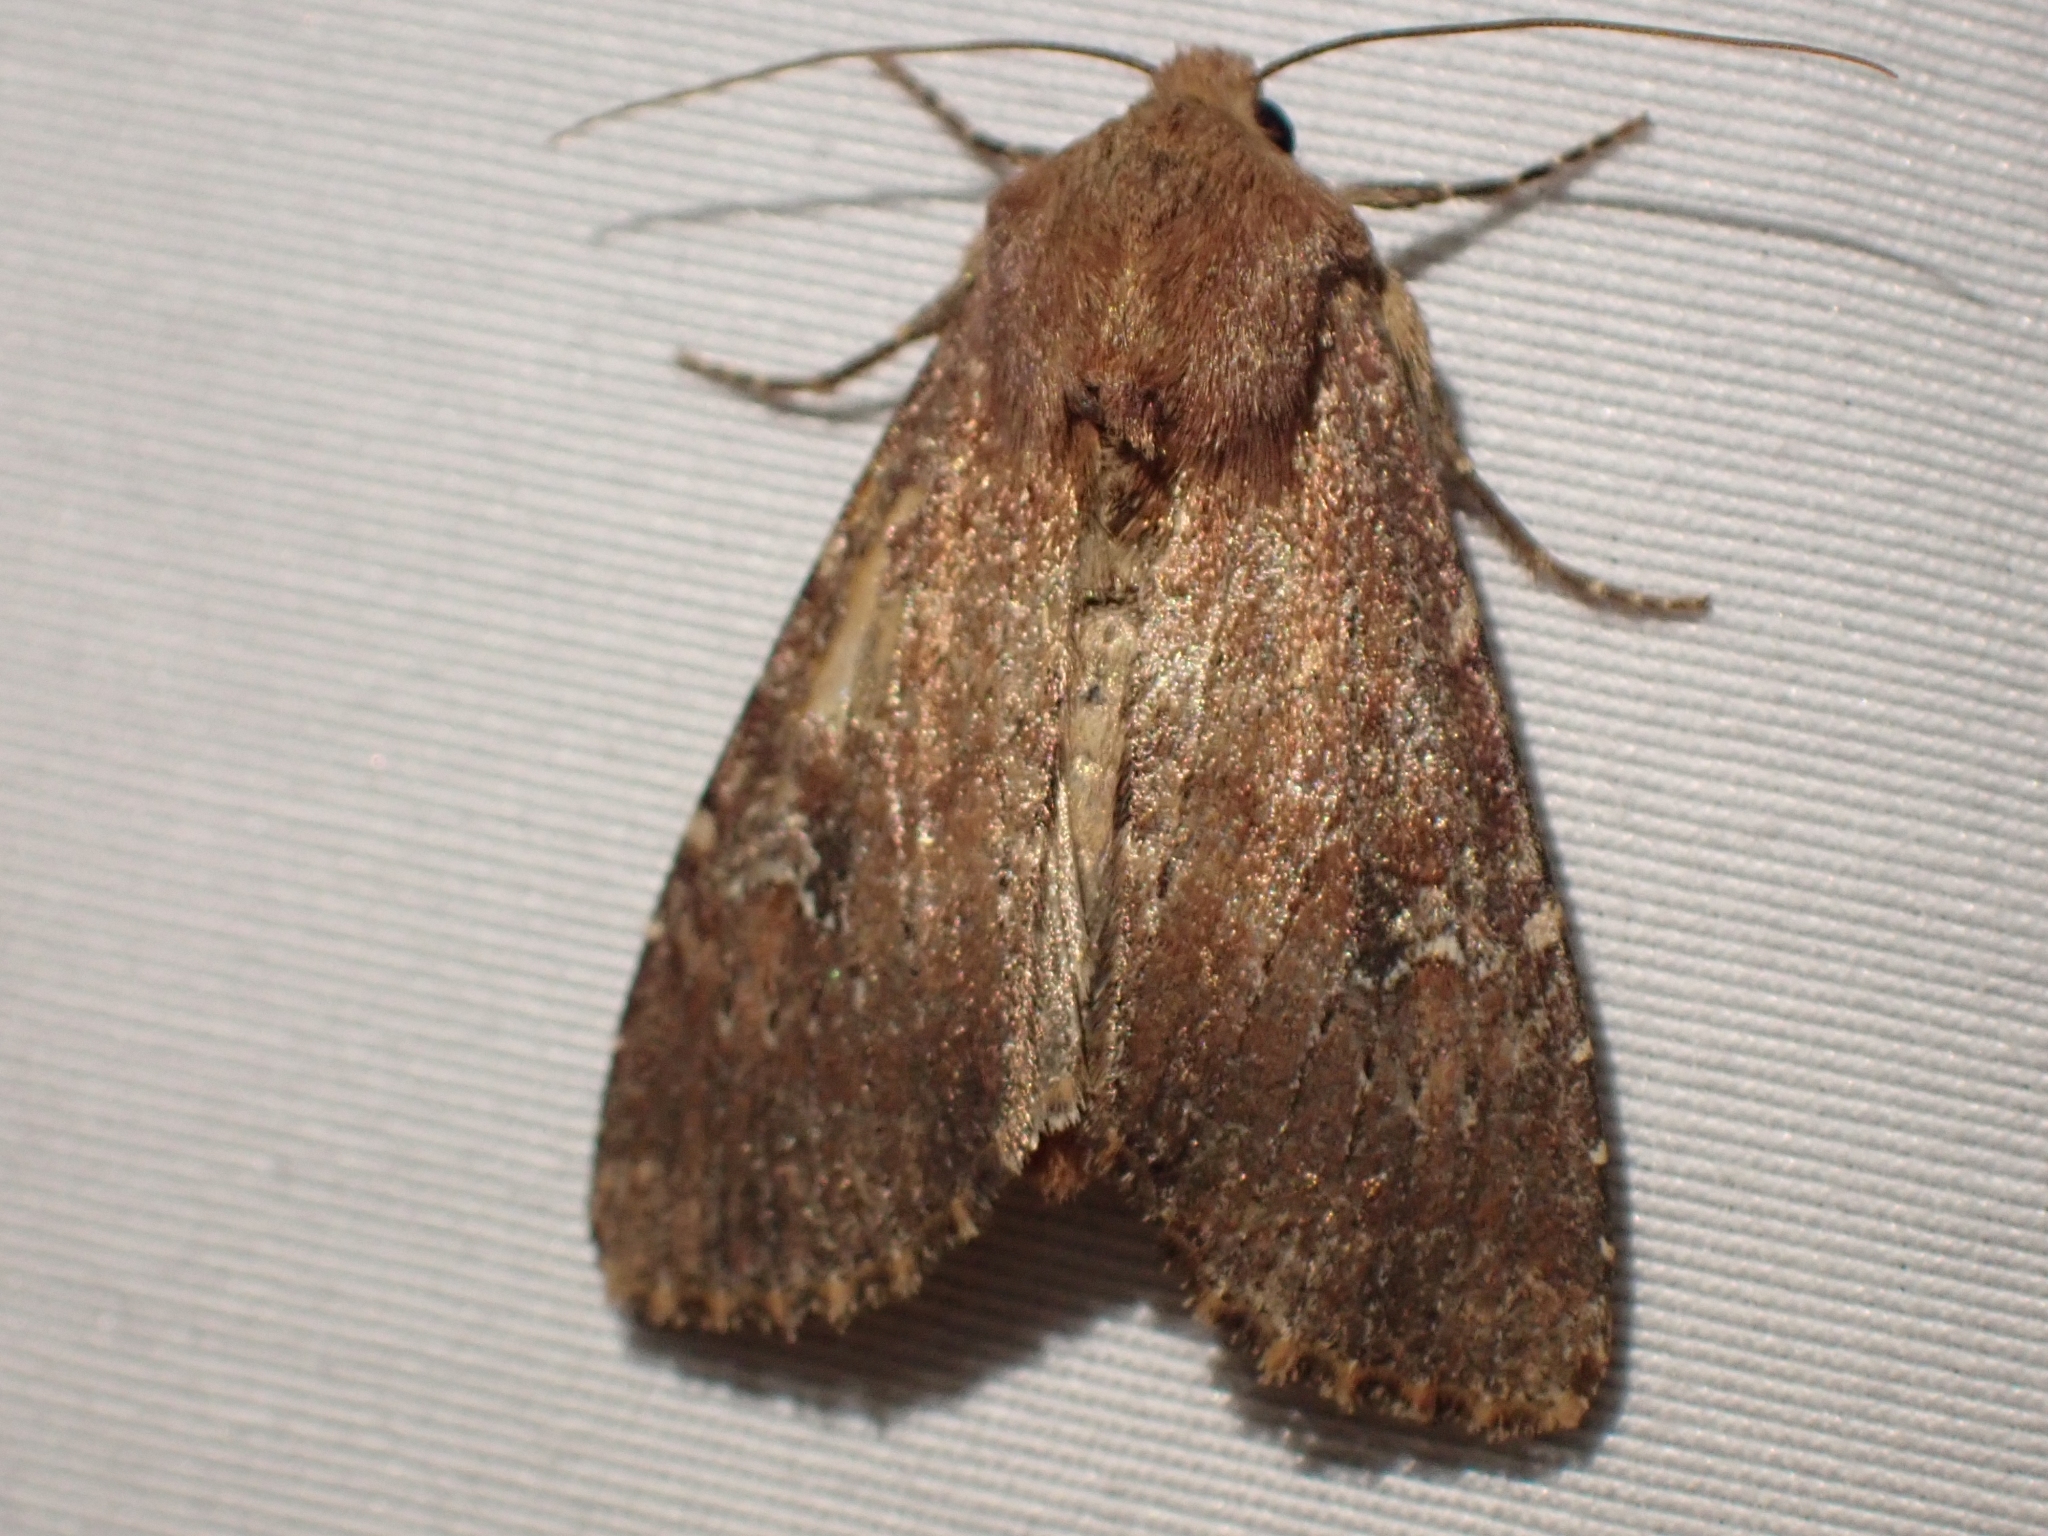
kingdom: Animalia
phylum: Arthropoda
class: Insecta
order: Lepidoptera
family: Noctuidae
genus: Apamea
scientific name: Apamea scoparia
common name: Faint-spotted quaker
